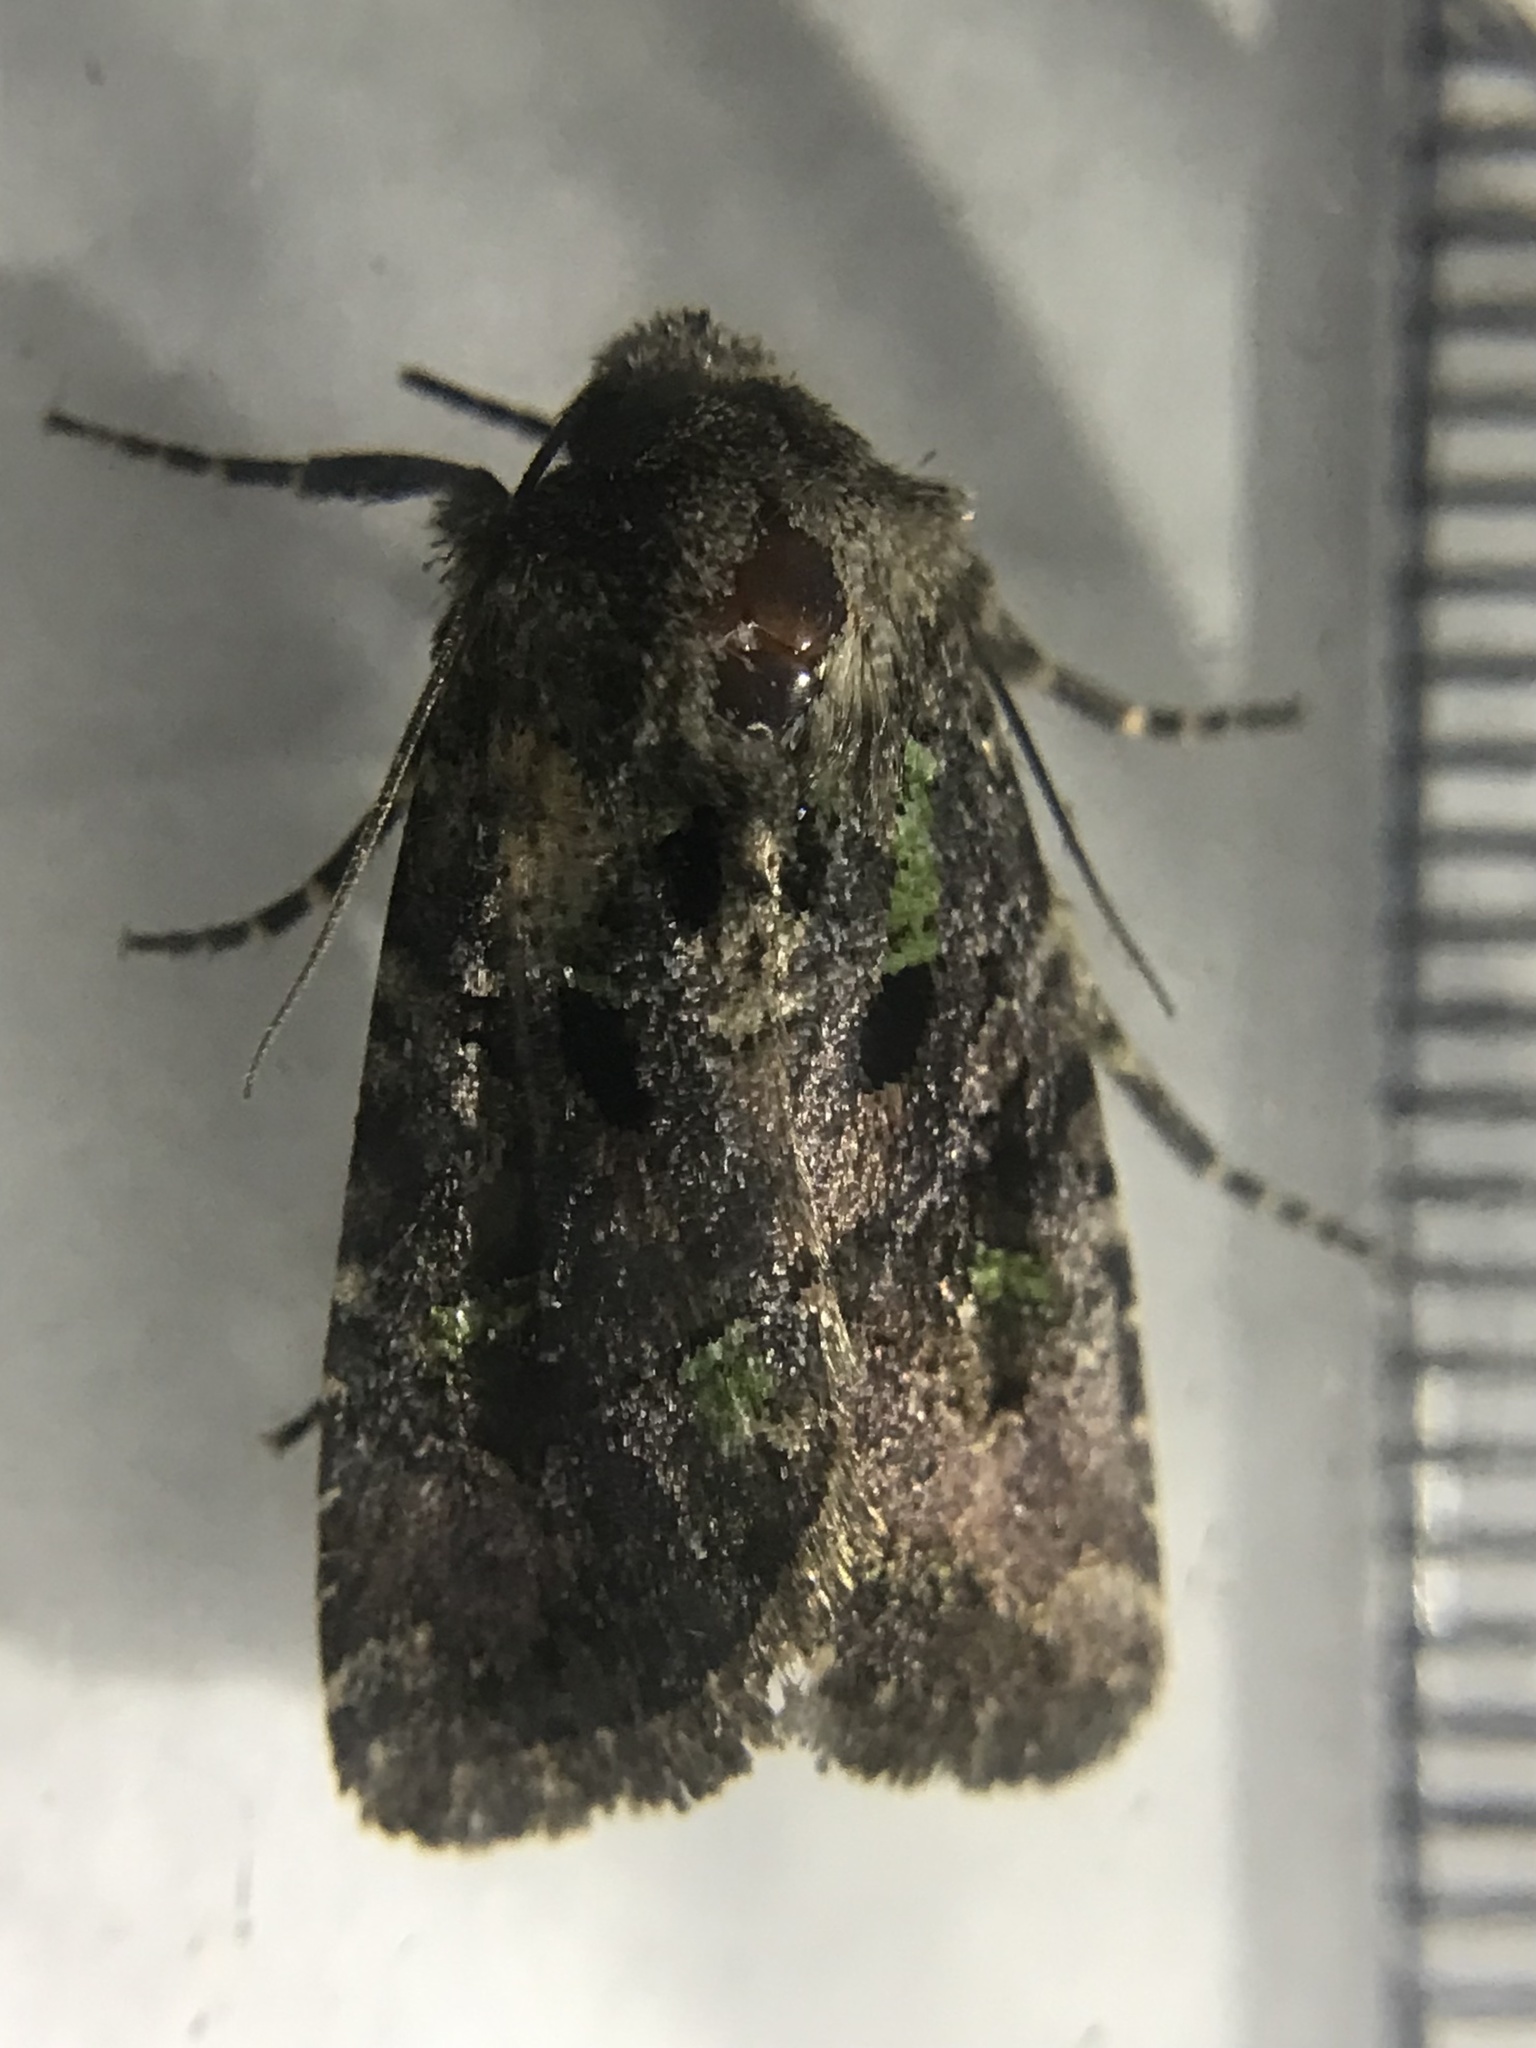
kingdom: Animalia
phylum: Arthropoda
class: Insecta
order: Lepidoptera
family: Noctuidae
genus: Lacinipolia
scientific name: Lacinipolia renigera
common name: Kidney-spotted minor
